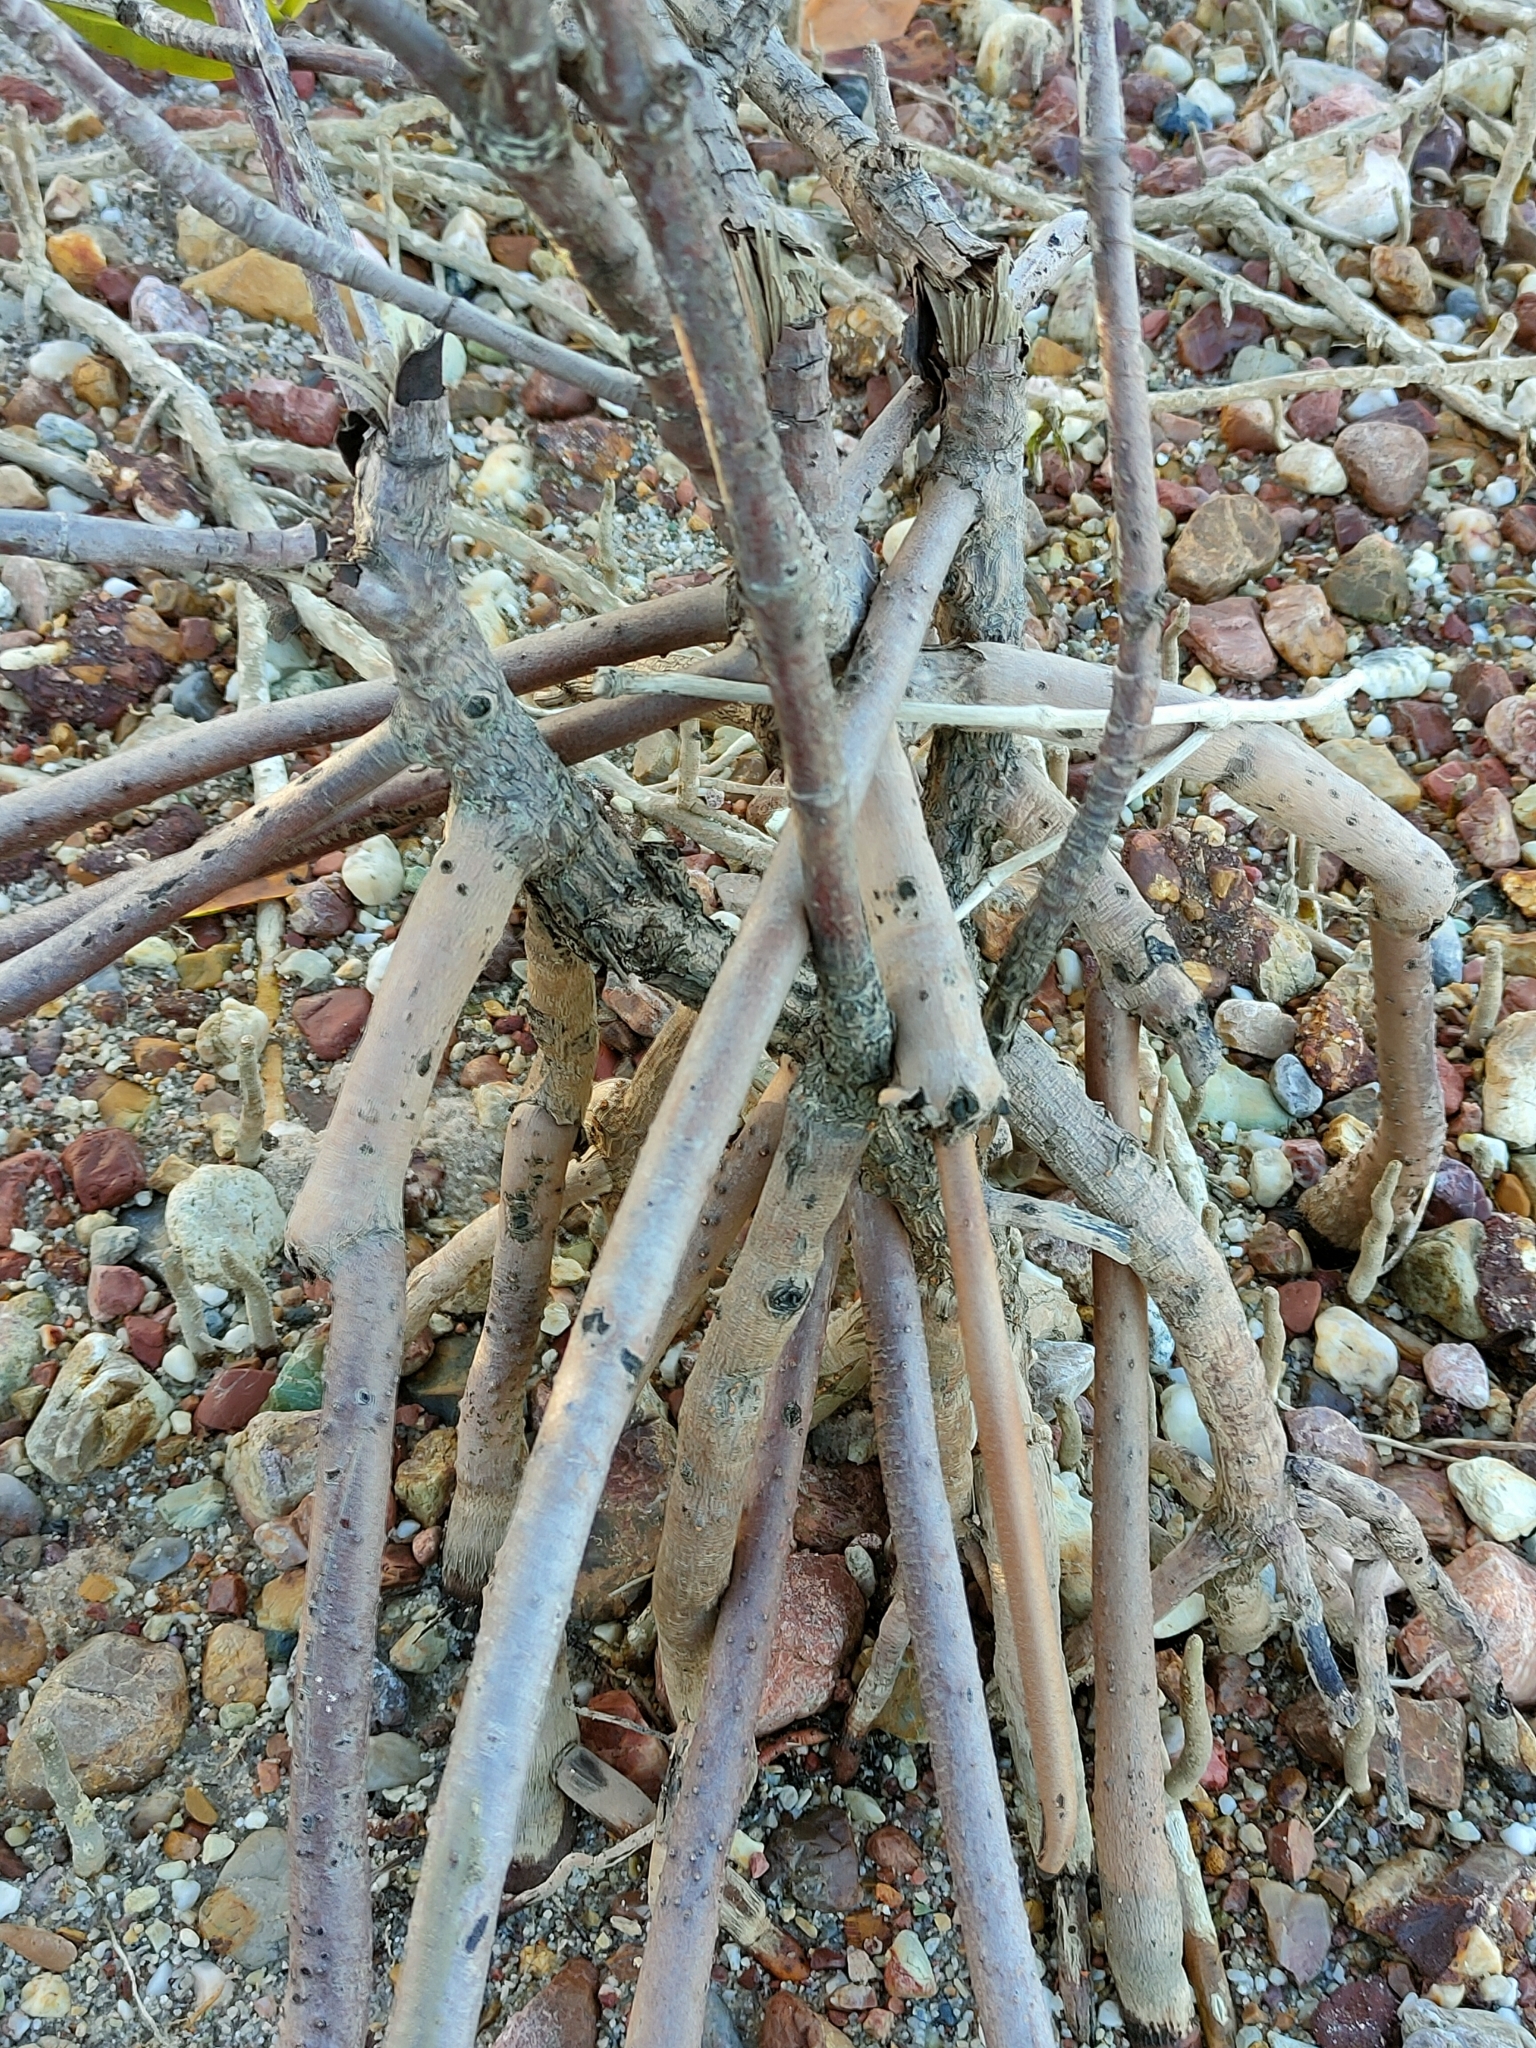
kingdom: Plantae
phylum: Tracheophyta
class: Magnoliopsida
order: Malpighiales
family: Rhizophoraceae
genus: Rhizophora
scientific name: Rhizophora stylosa
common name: Red mangrove
